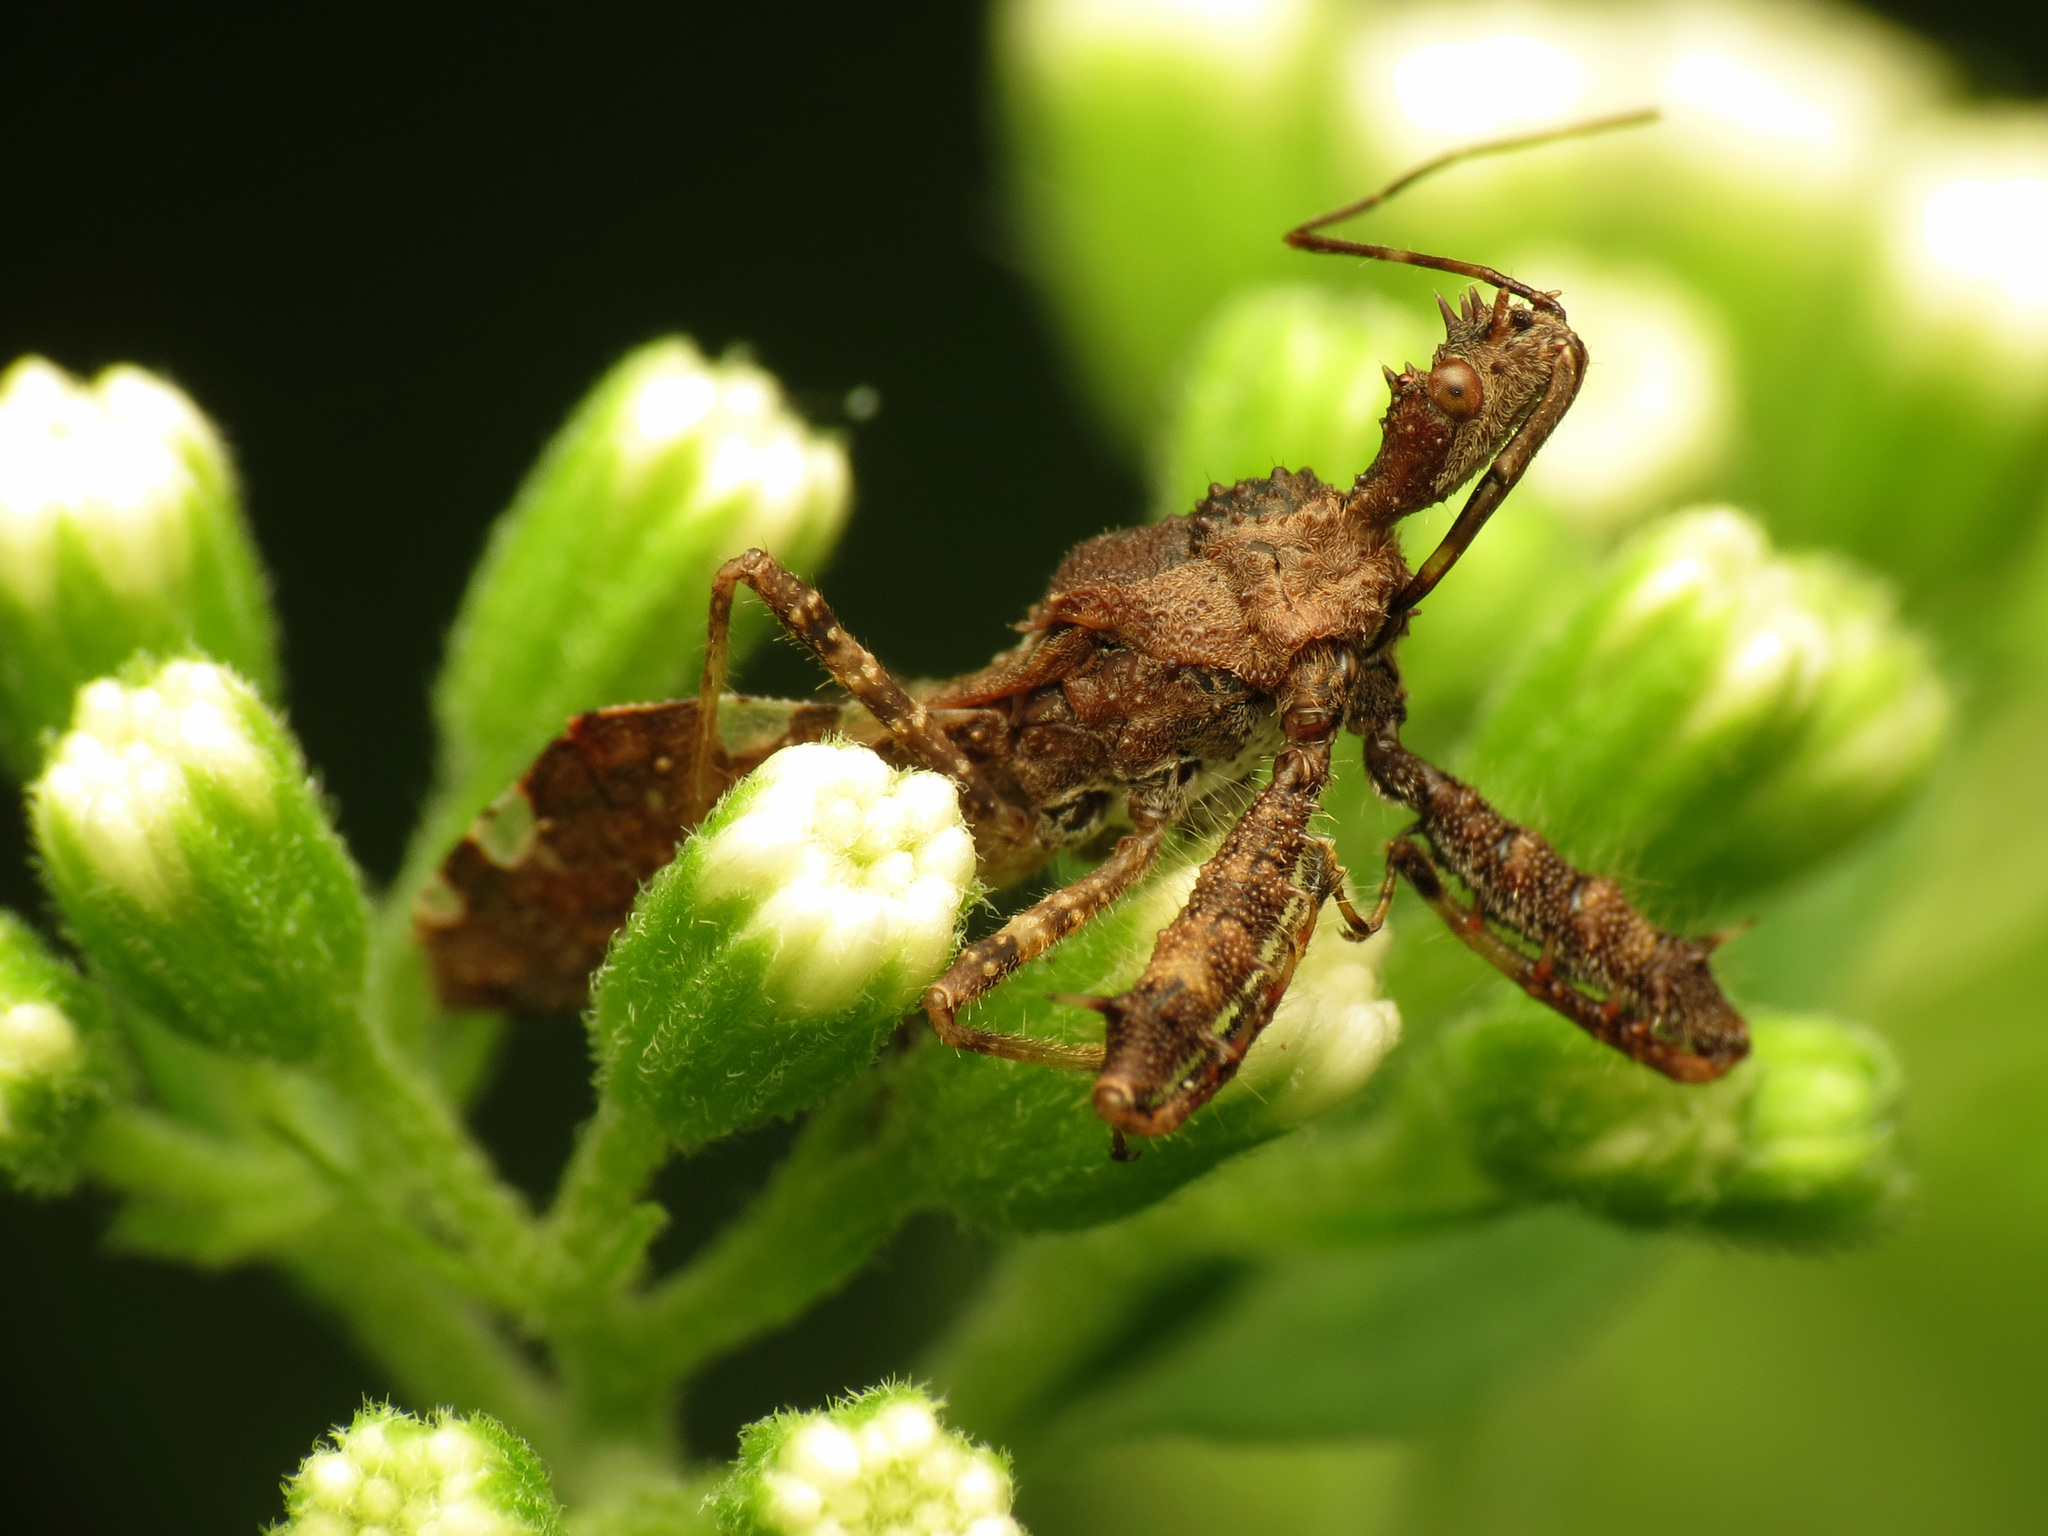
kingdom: Animalia
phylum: Arthropoda
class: Insecta
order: Hemiptera
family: Reduviidae
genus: Sinea
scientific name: Sinea spinipes
